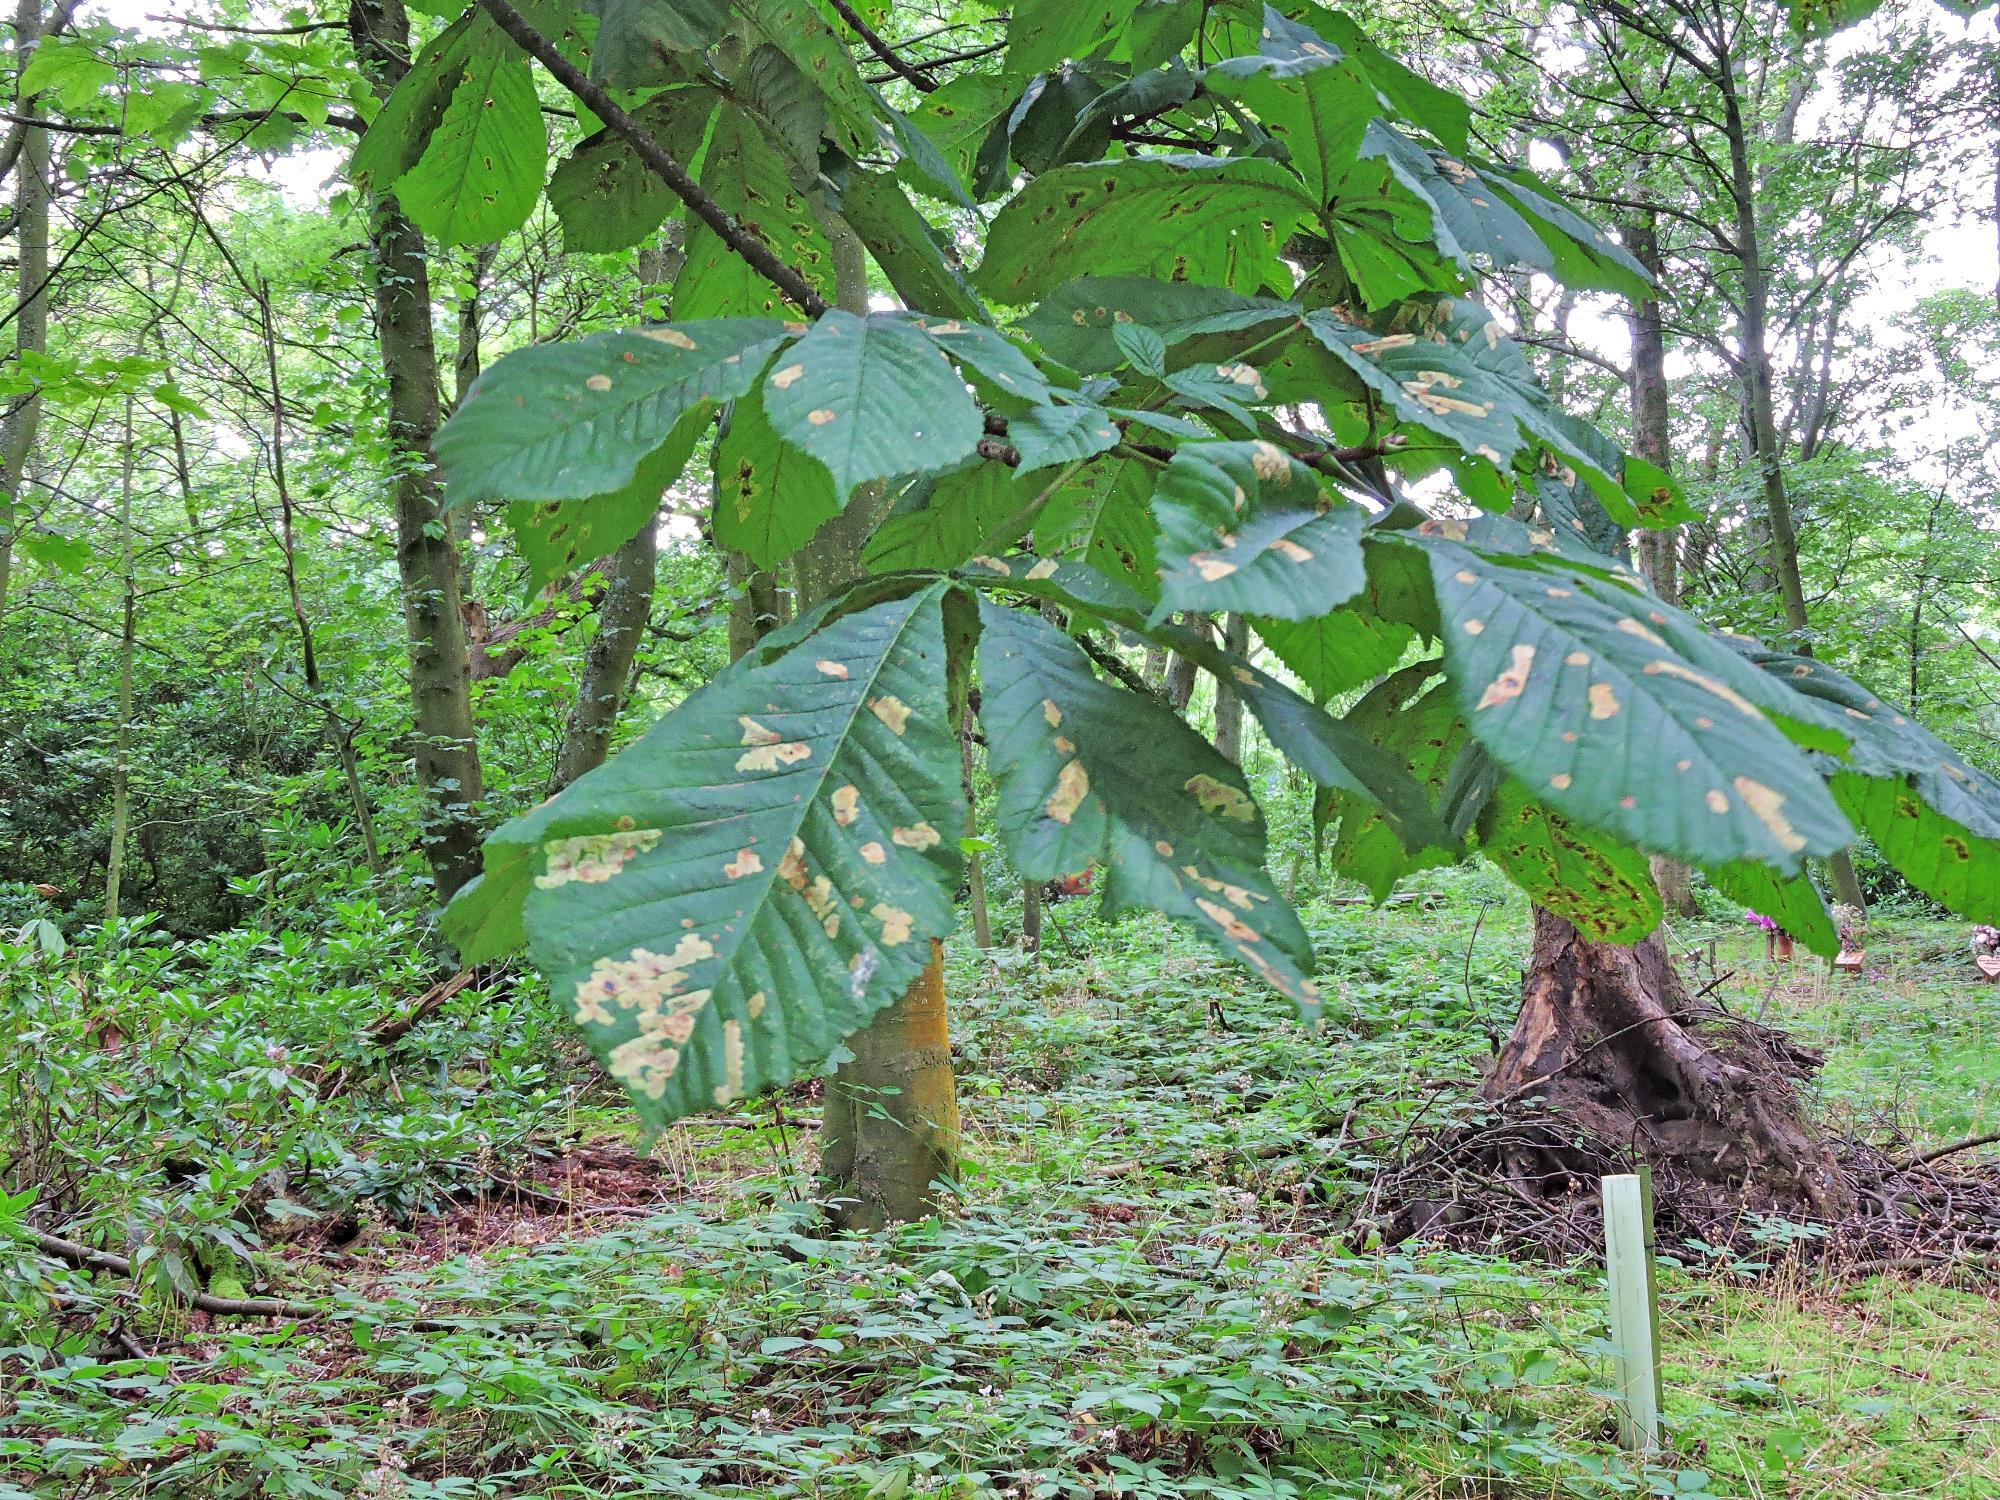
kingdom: Animalia
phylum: Arthropoda
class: Insecta
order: Lepidoptera
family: Gracillariidae
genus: Cameraria
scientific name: Cameraria ohridella
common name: Horse-chestnut leaf-miner
